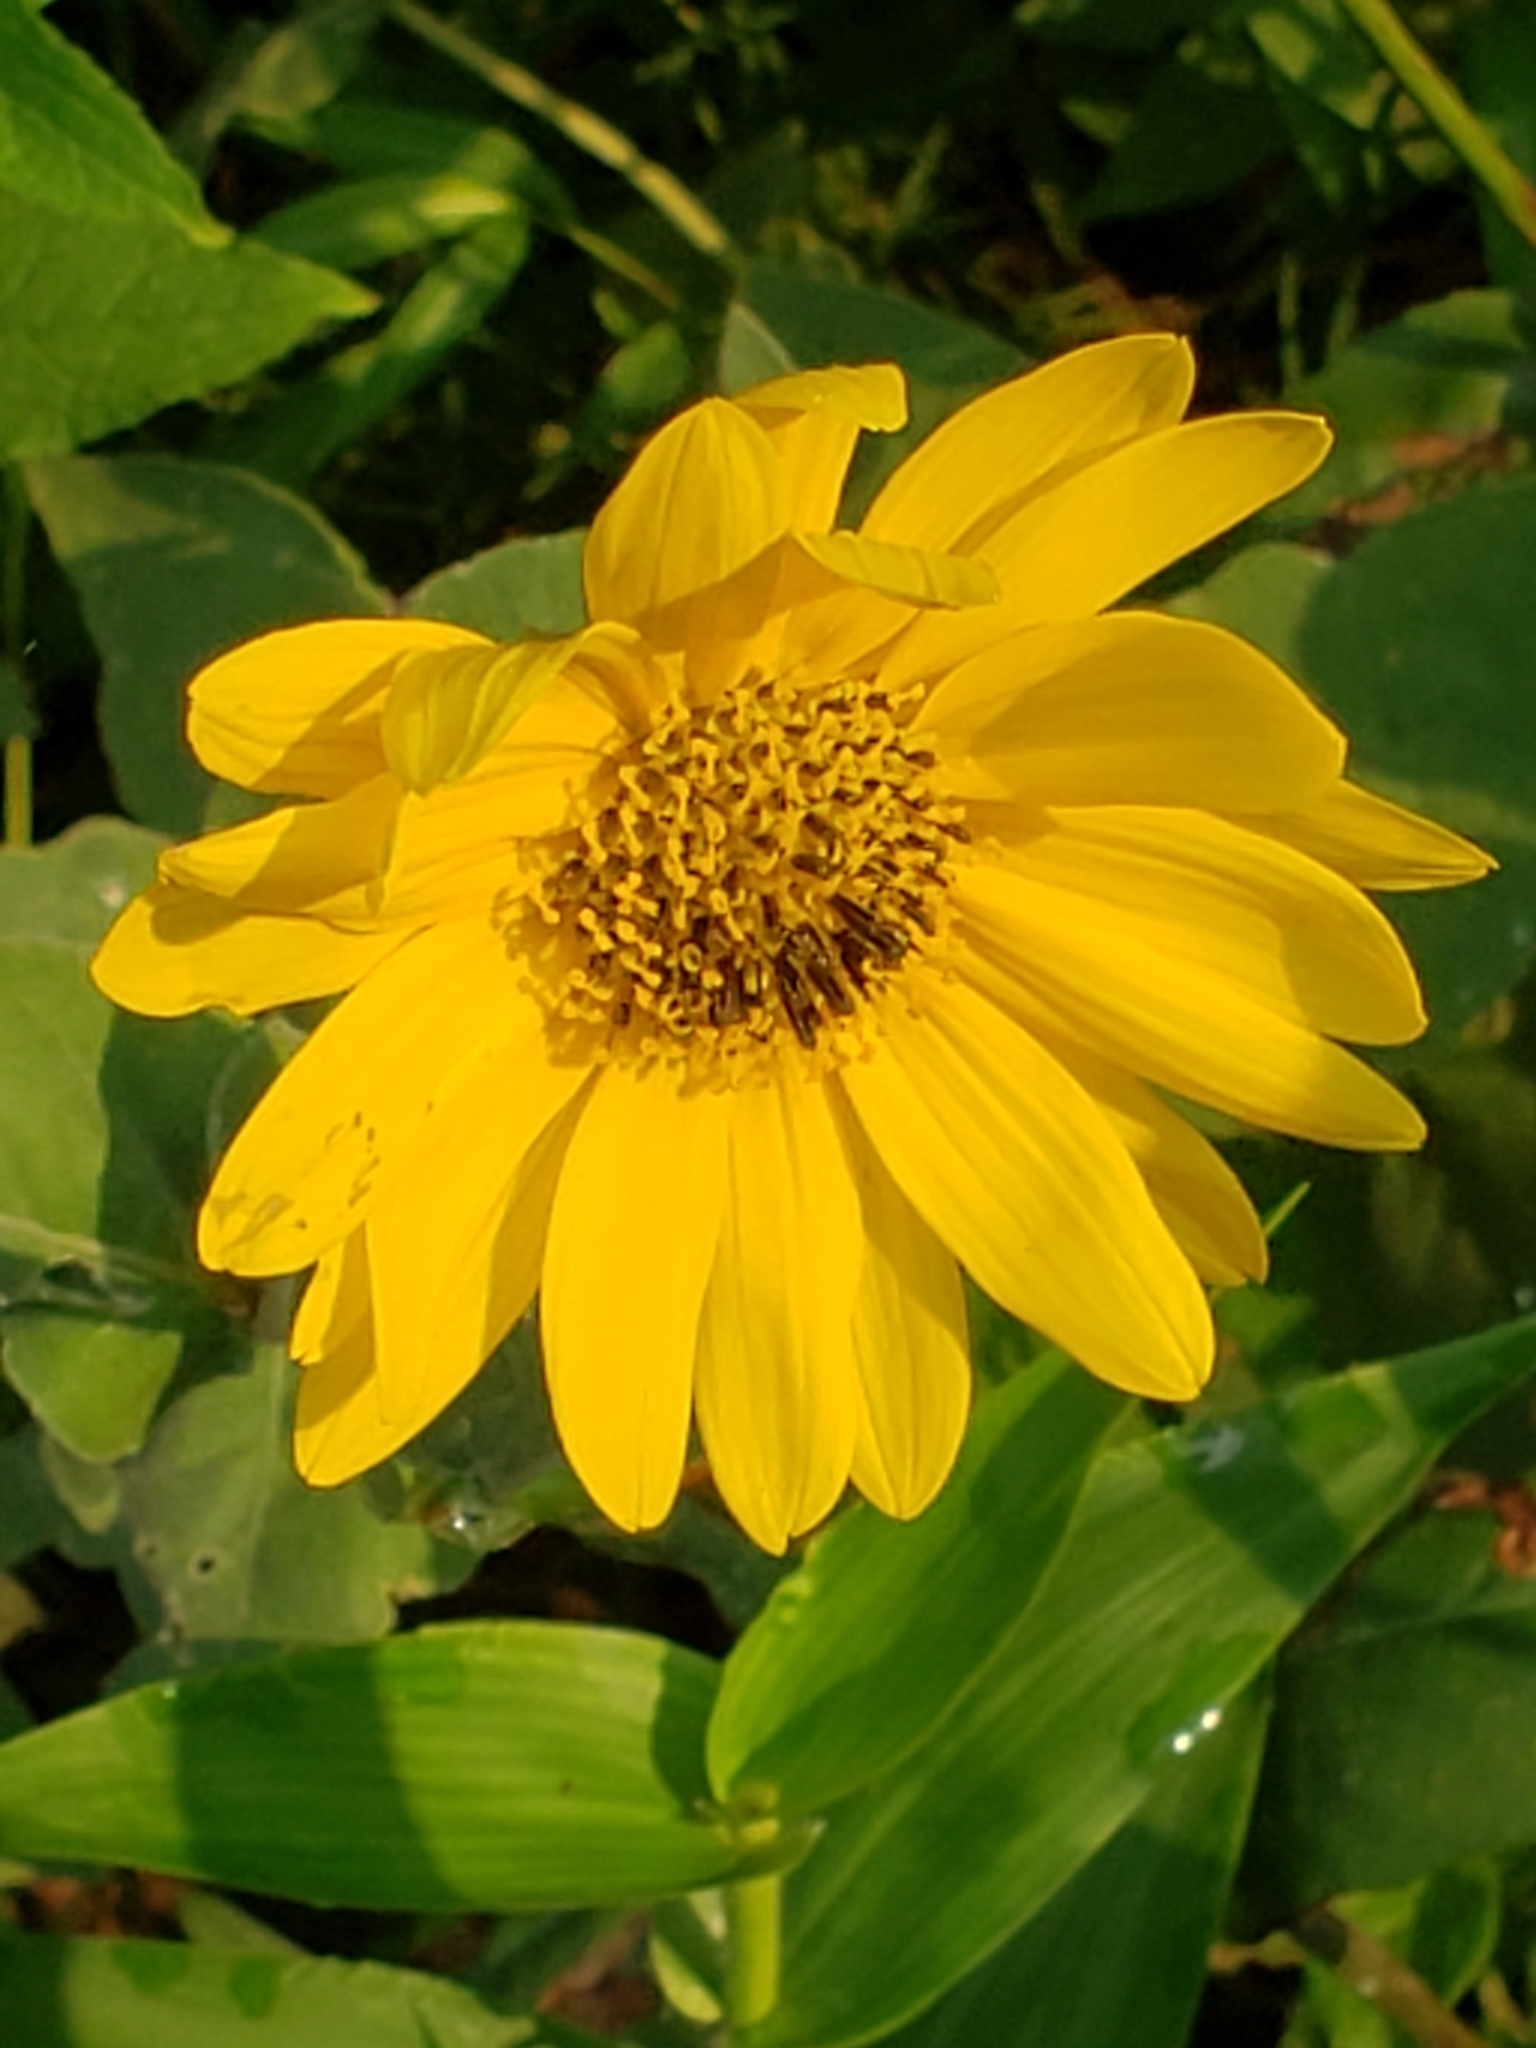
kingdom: Plantae
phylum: Tracheophyta
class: Magnoliopsida
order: Asterales
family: Asteraceae
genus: Helianthus
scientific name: Helianthus mollis
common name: Ashy sunflower
